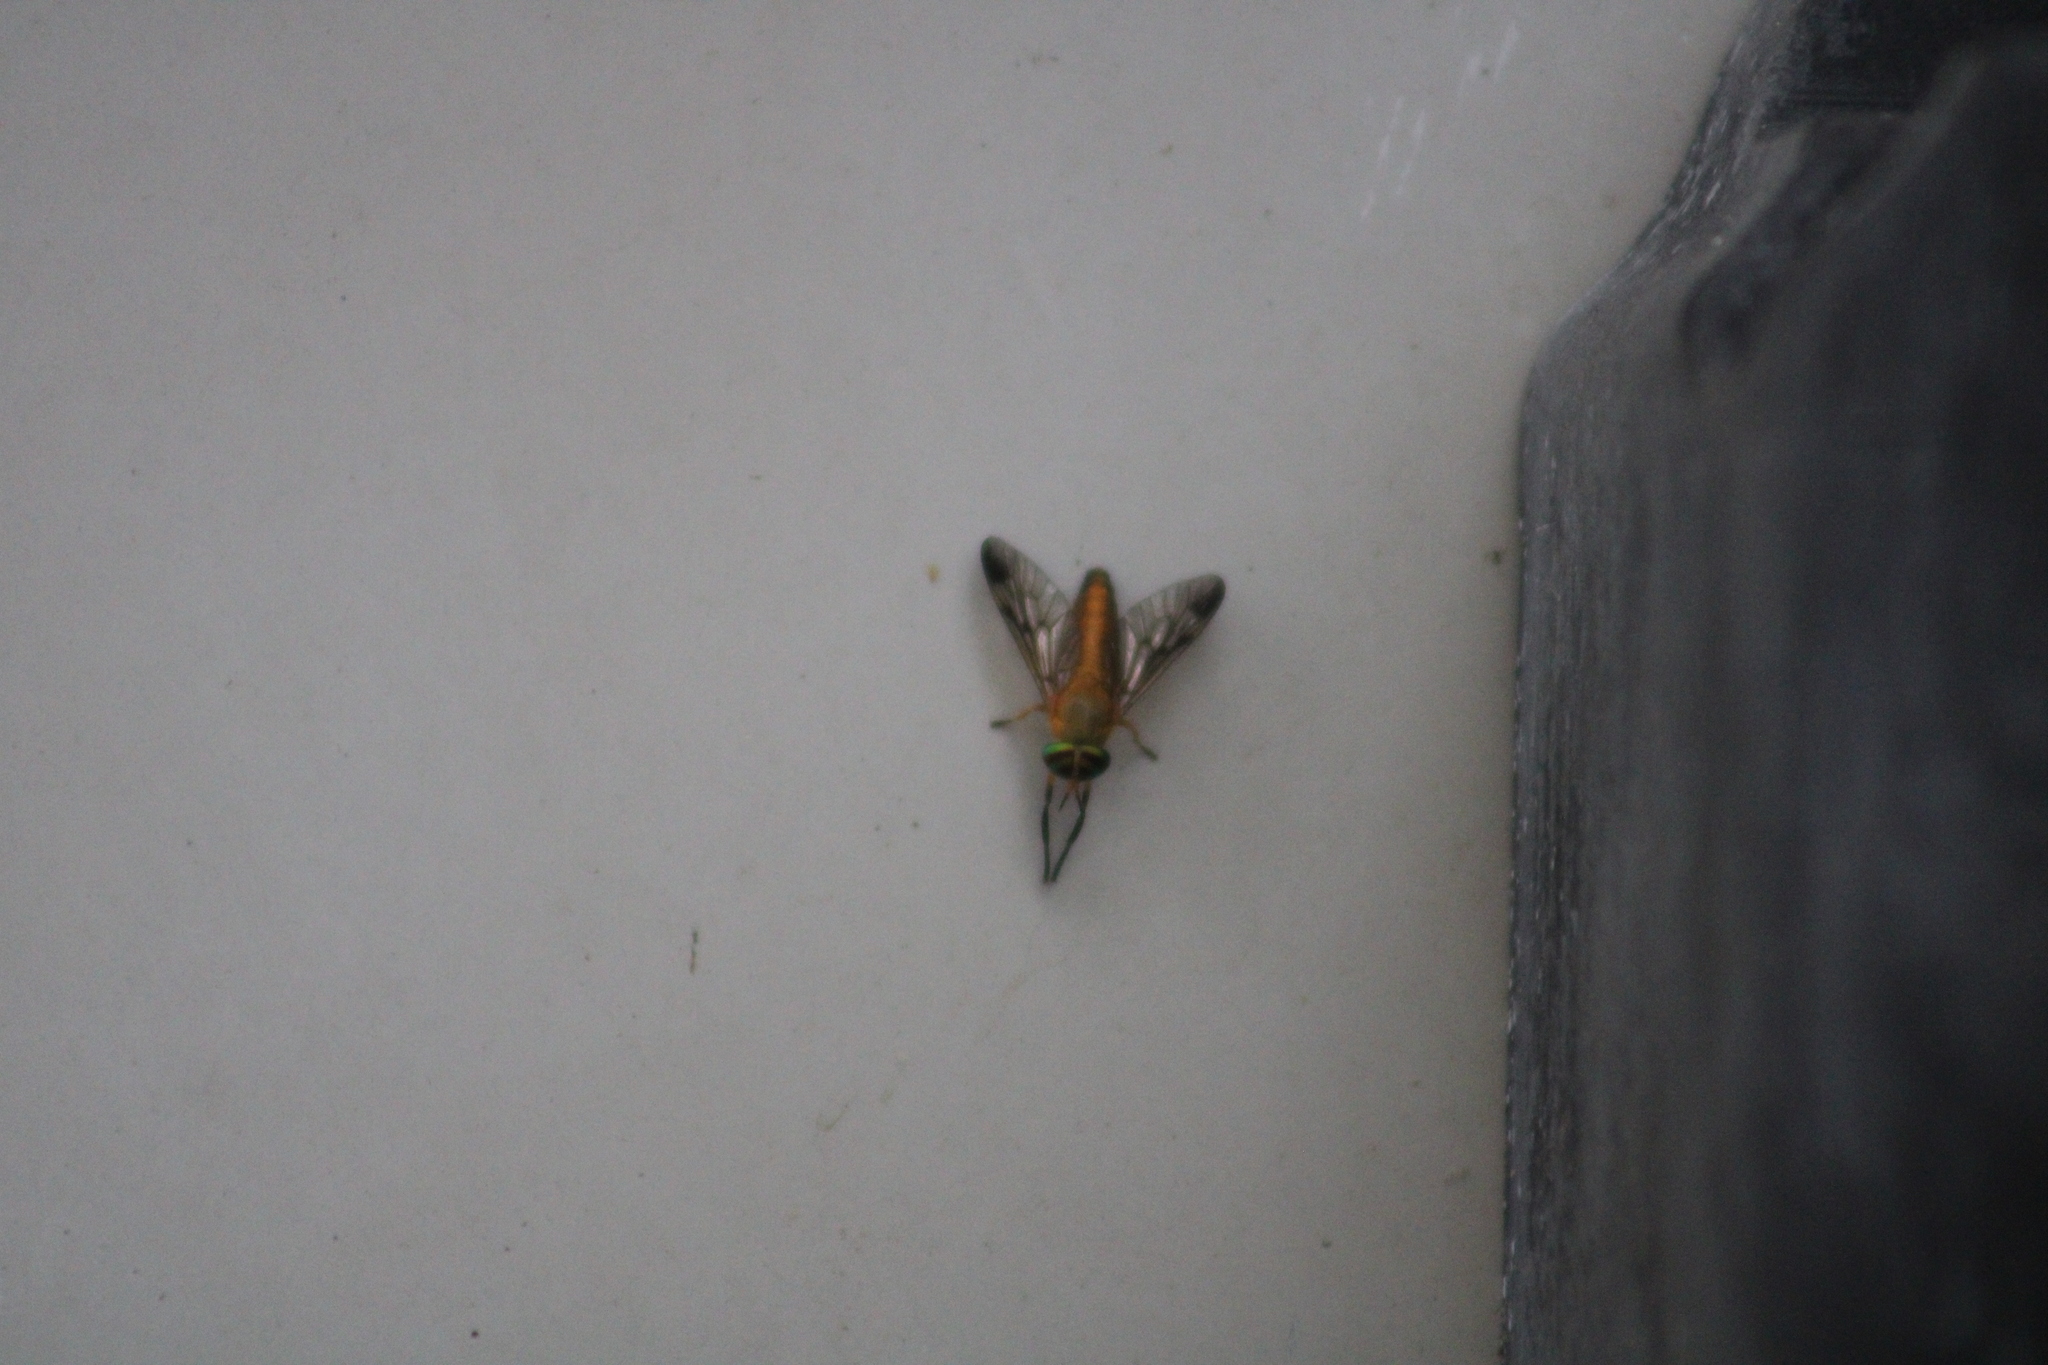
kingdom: Animalia
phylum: Arthropoda
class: Insecta
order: Diptera
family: Tabanidae
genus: Diachlorus
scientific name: Diachlorus ferrugatus
